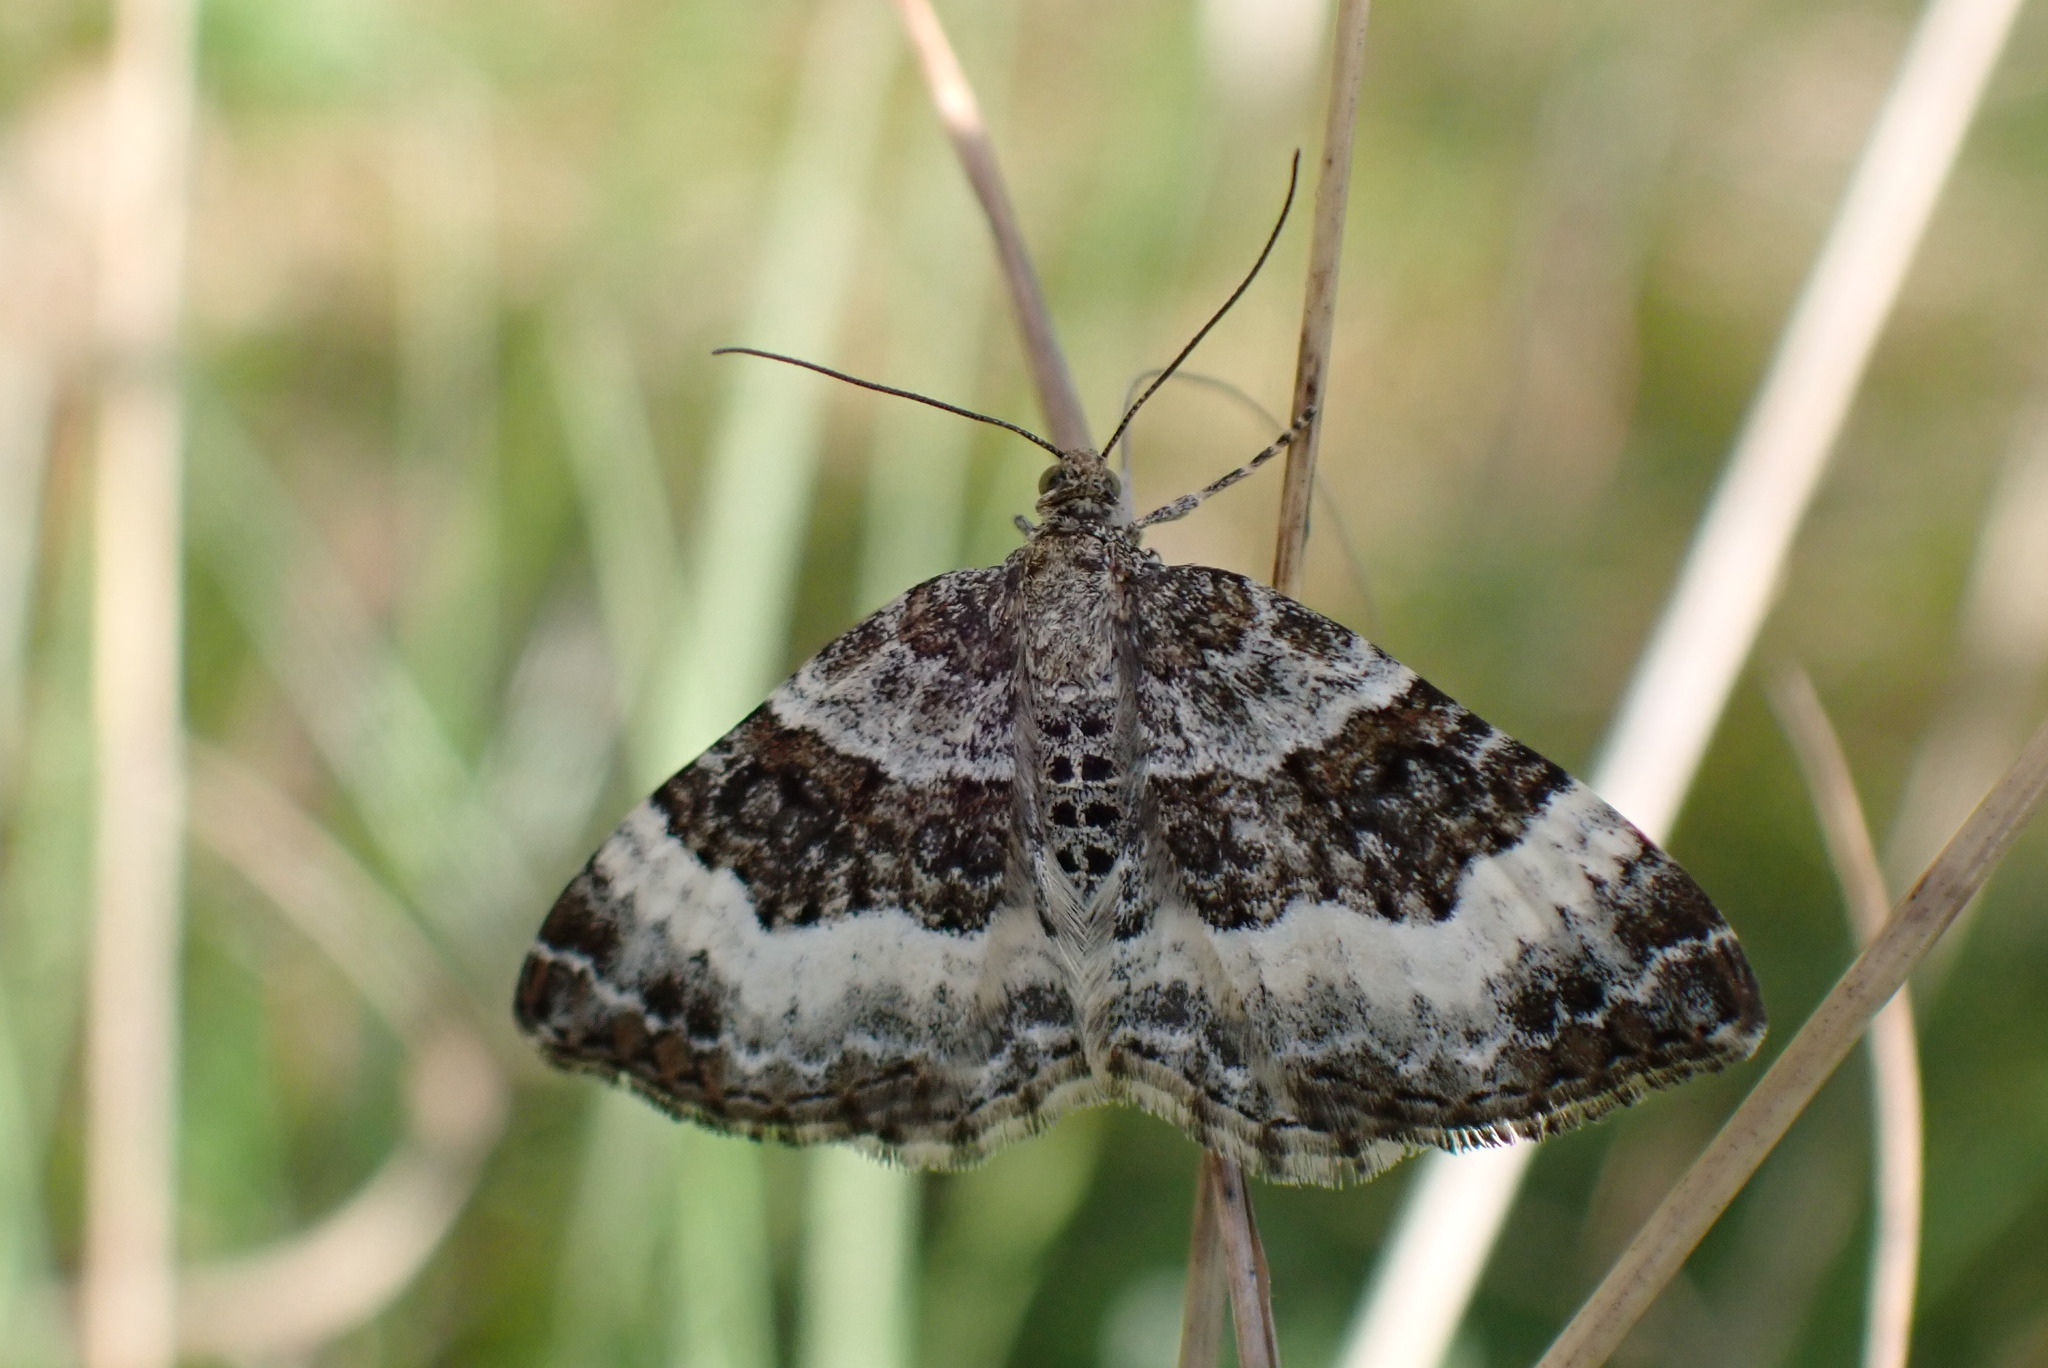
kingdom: Animalia
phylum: Arthropoda
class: Insecta
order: Lepidoptera
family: Geometridae
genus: Epirrhoe
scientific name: Epirrhoe alternata
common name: Common carpet
